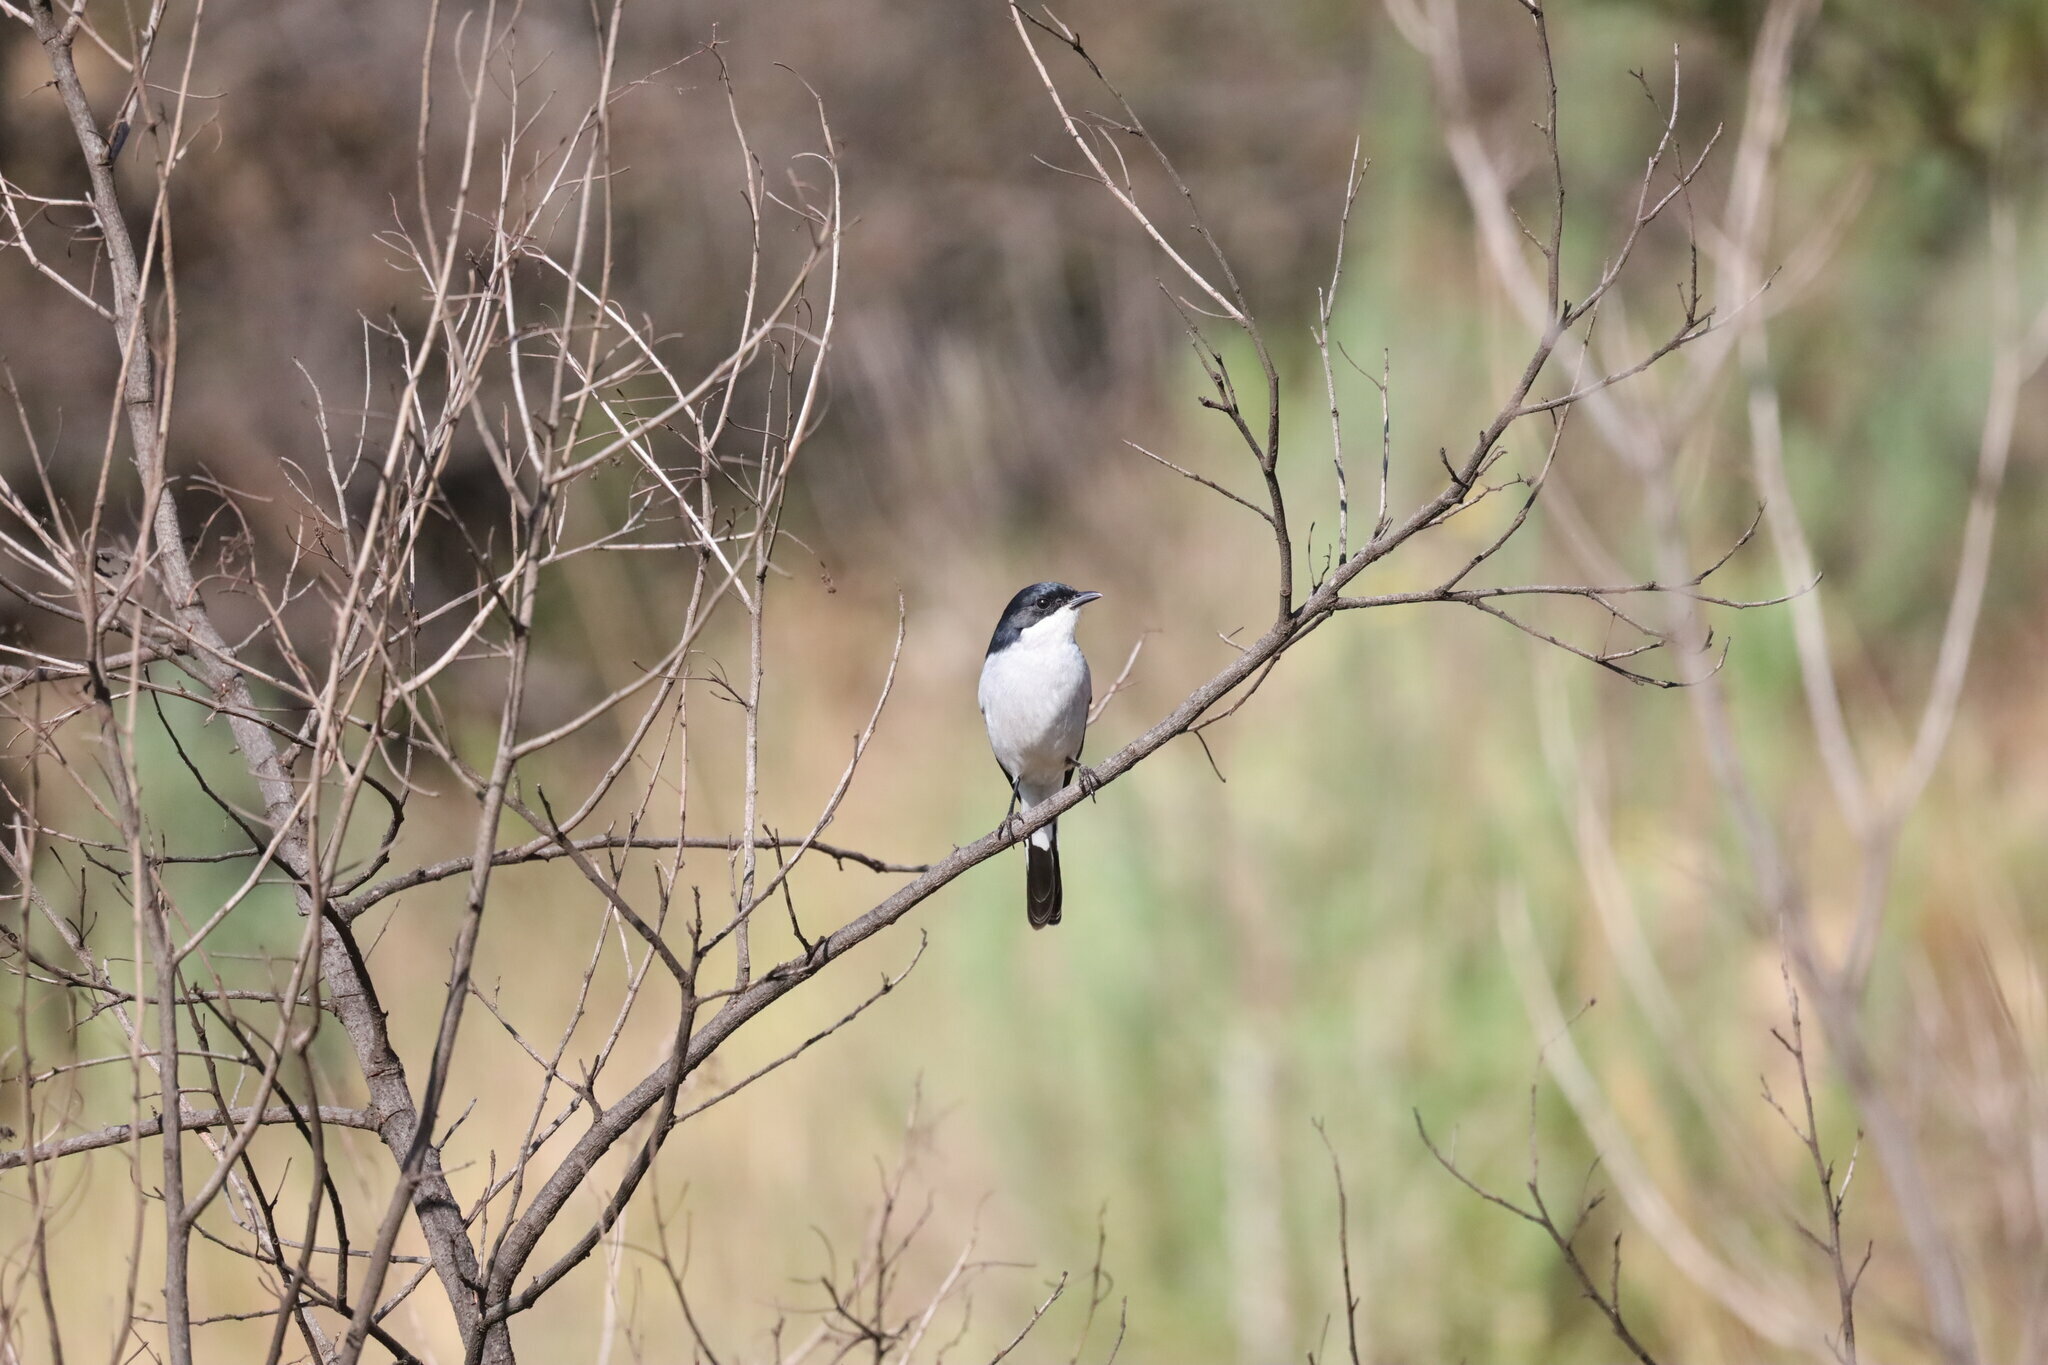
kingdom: Animalia
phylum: Chordata
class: Aves
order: Passeriformes
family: Muscicapidae
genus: Sigelus
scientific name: Sigelus silens
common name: Fiscal flycatcher
